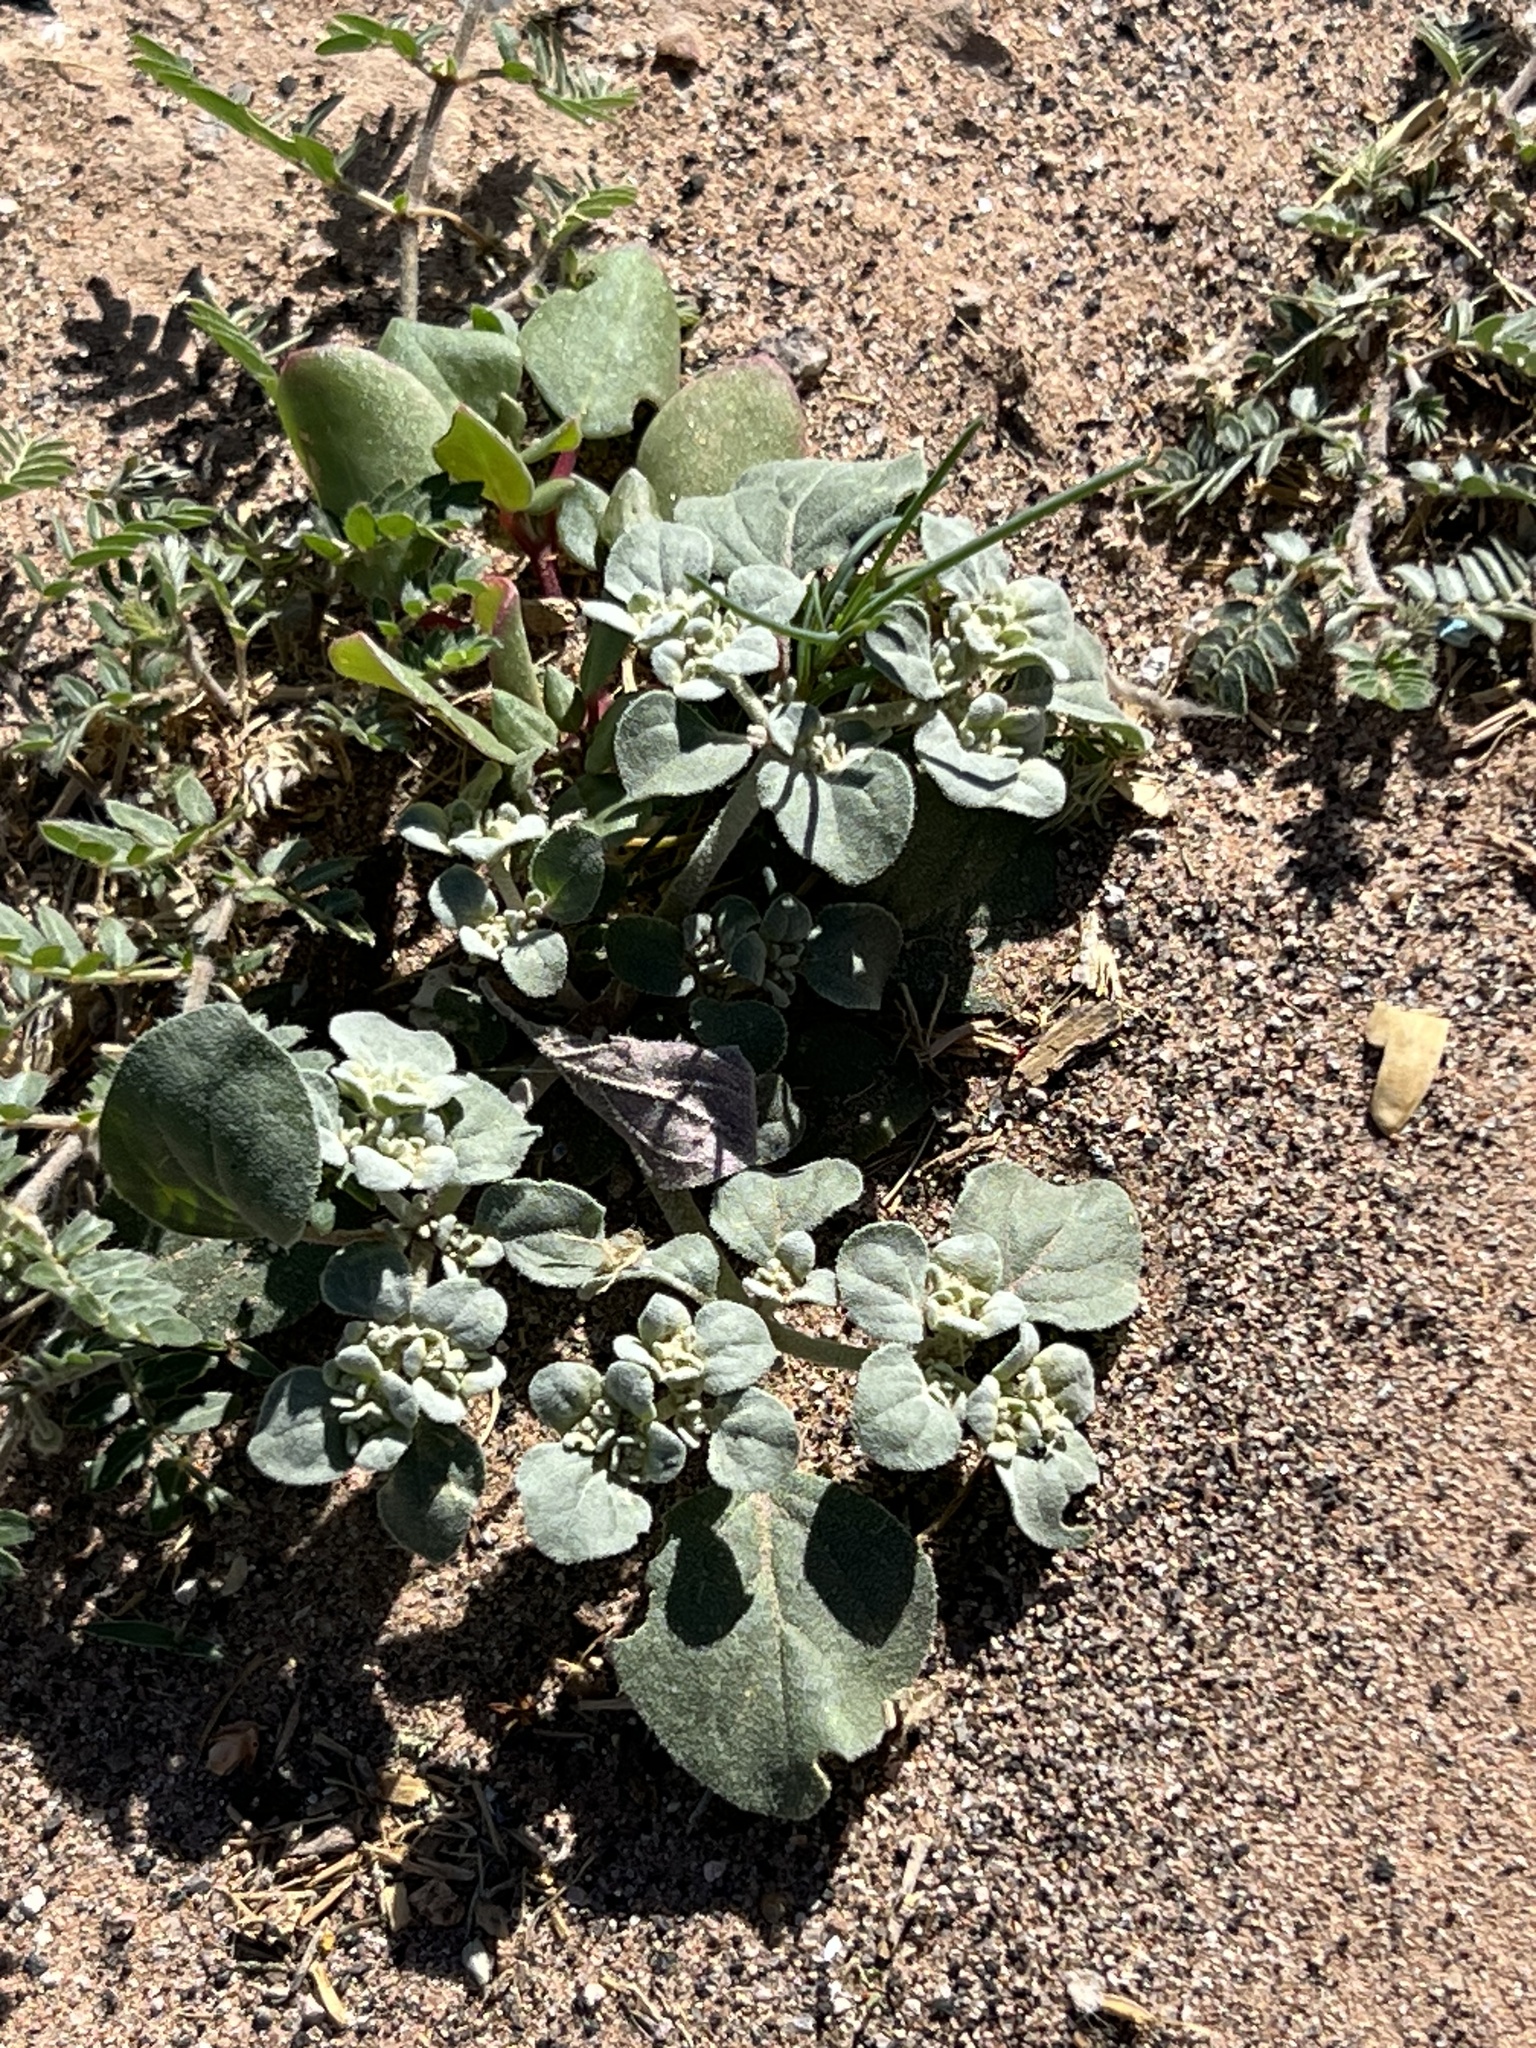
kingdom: Plantae
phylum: Tracheophyta
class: Magnoliopsida
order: Caryophyllales
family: Amaranthaceae
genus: Tidestromia
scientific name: Tidestromia lanuginosa
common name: Woolly tidestromia
